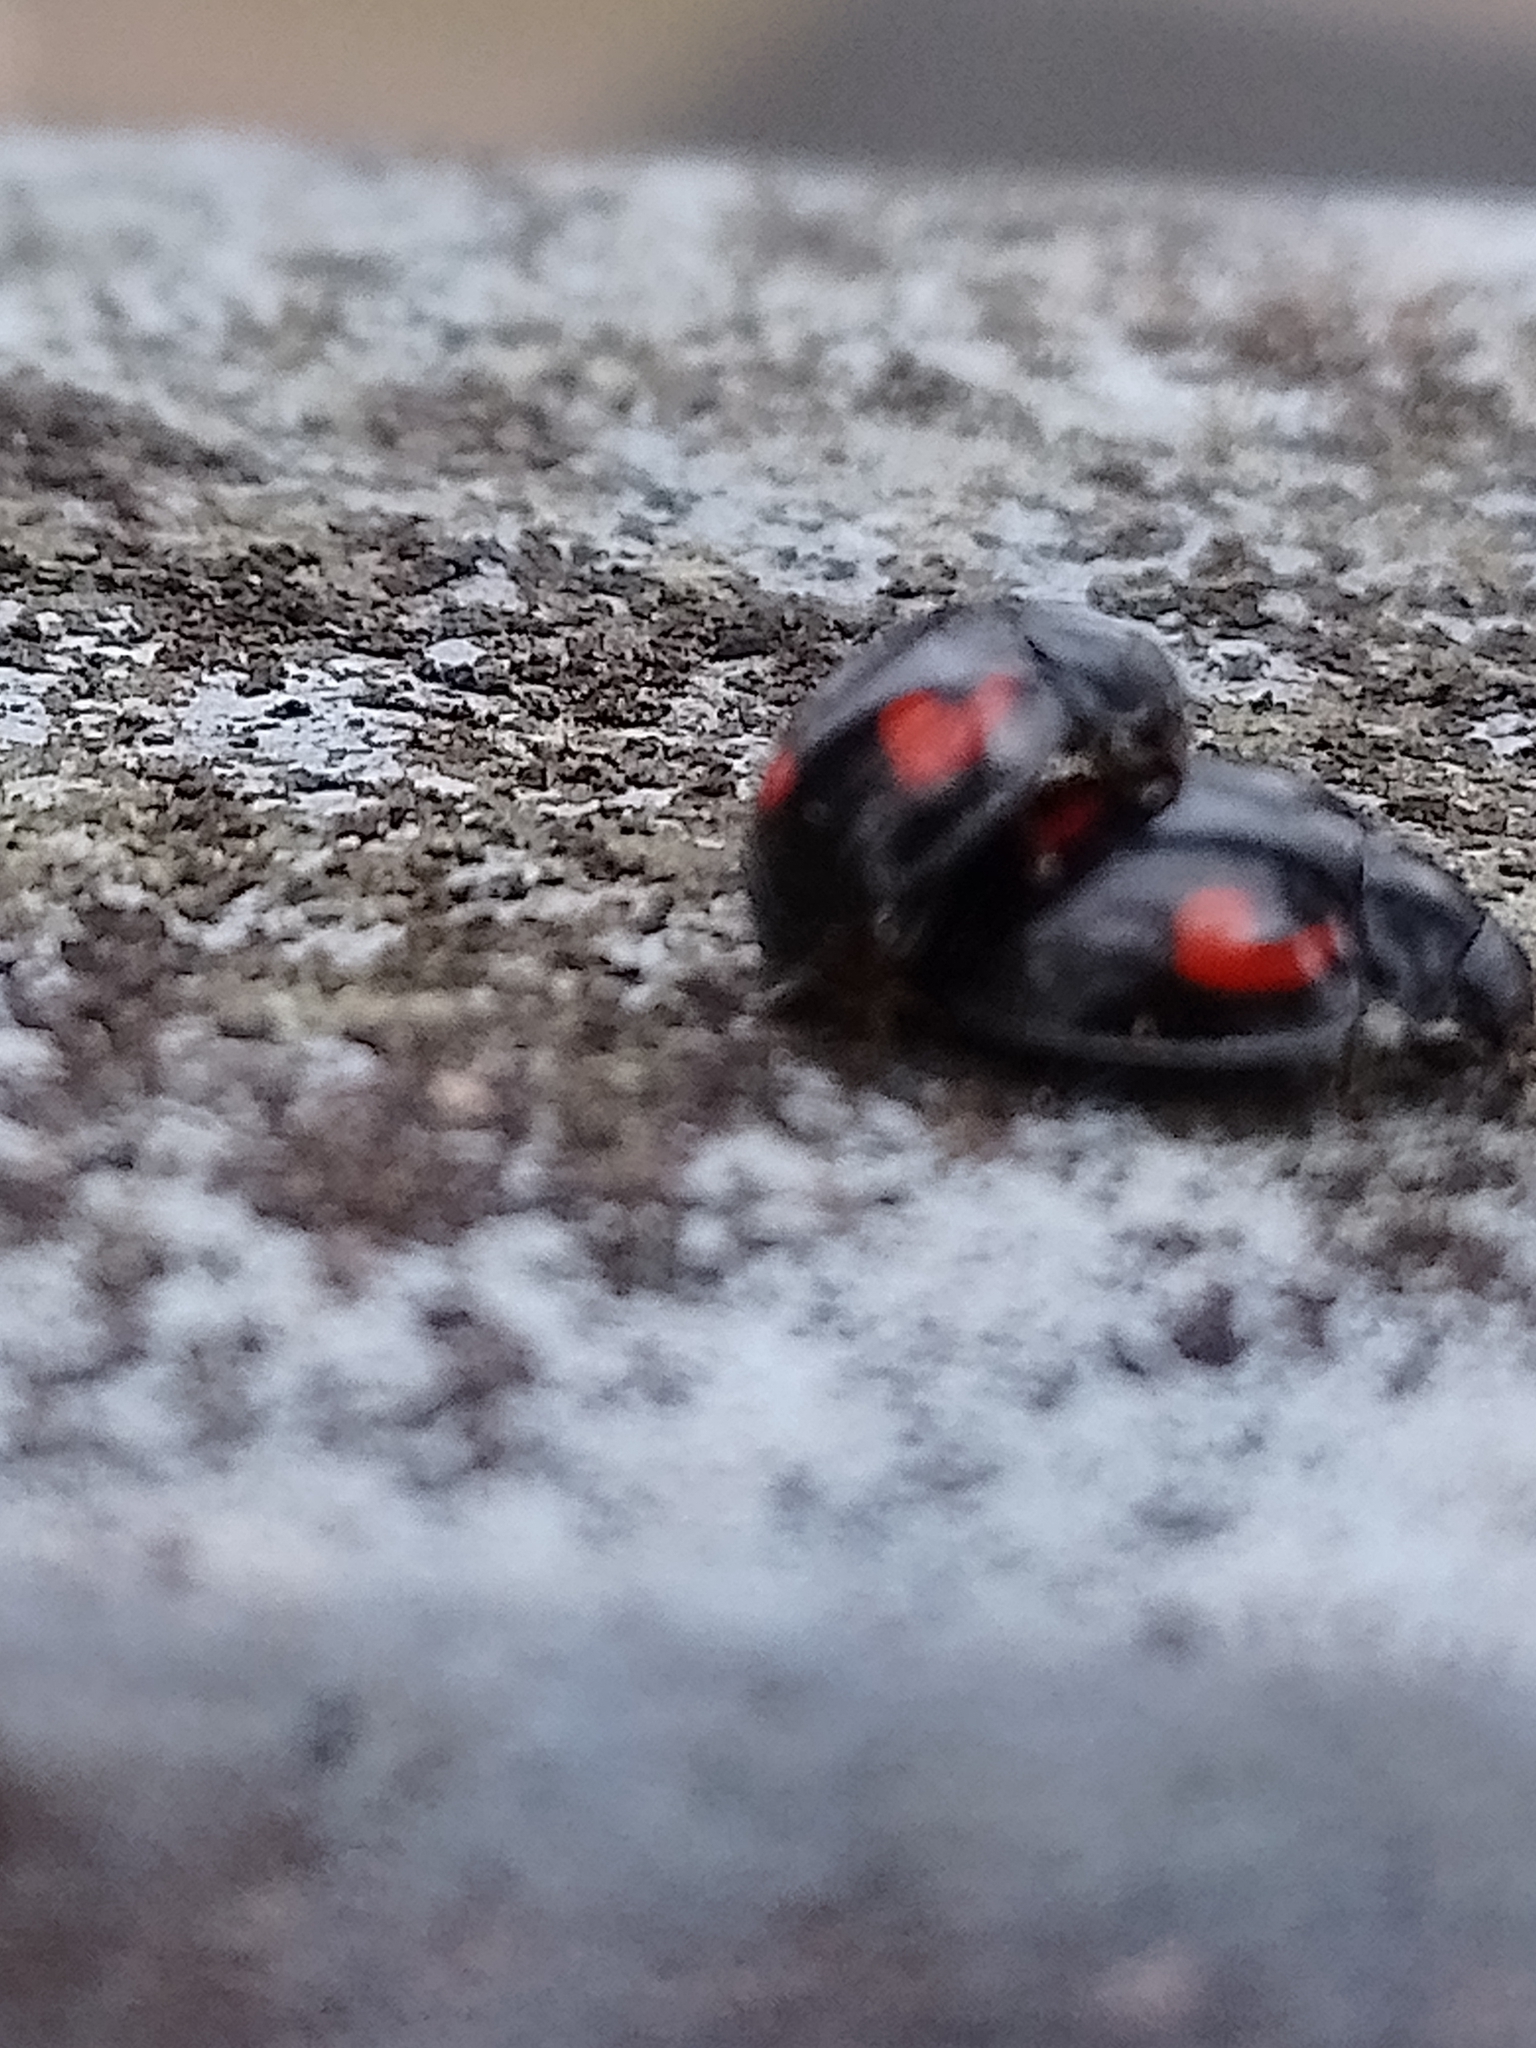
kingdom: Animalia
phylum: Arthropoda
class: Insecta
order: Coleoptera
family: Coccinellidae
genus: Brumus
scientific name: Brumus quadripustulatus
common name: Ladybird beetle
